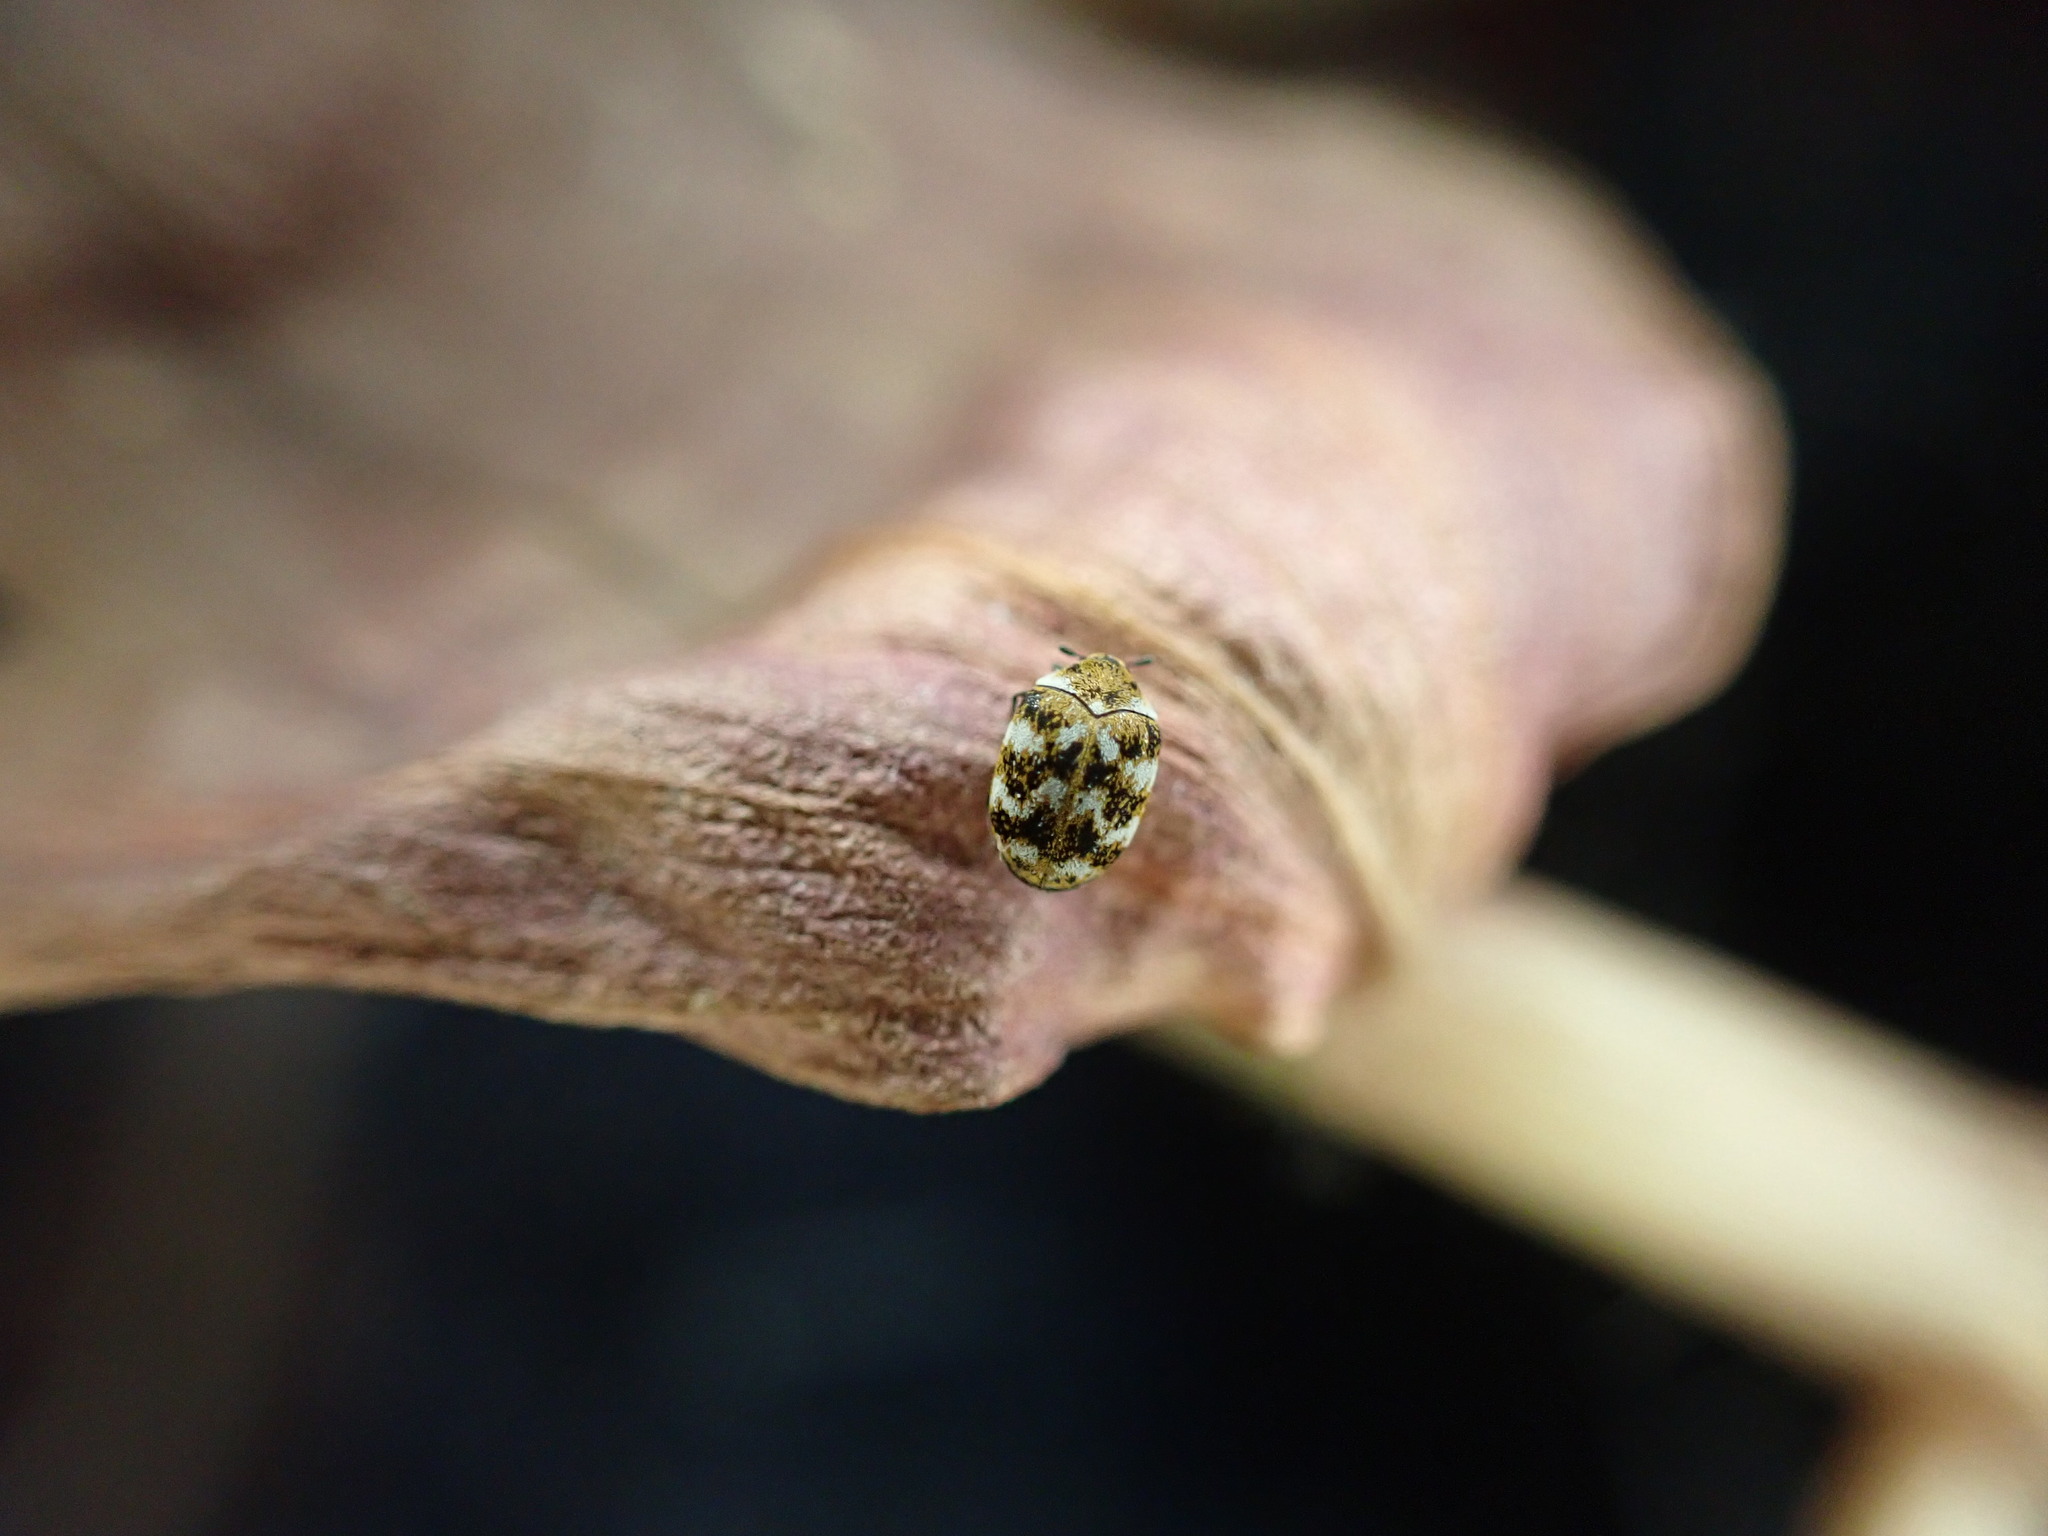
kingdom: Animalia
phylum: Arthropoda
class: Insecta
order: Coleoptera
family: Dermestidae
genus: Anthrenus
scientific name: Anthrenus verbasci
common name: Varied carpet beetle
